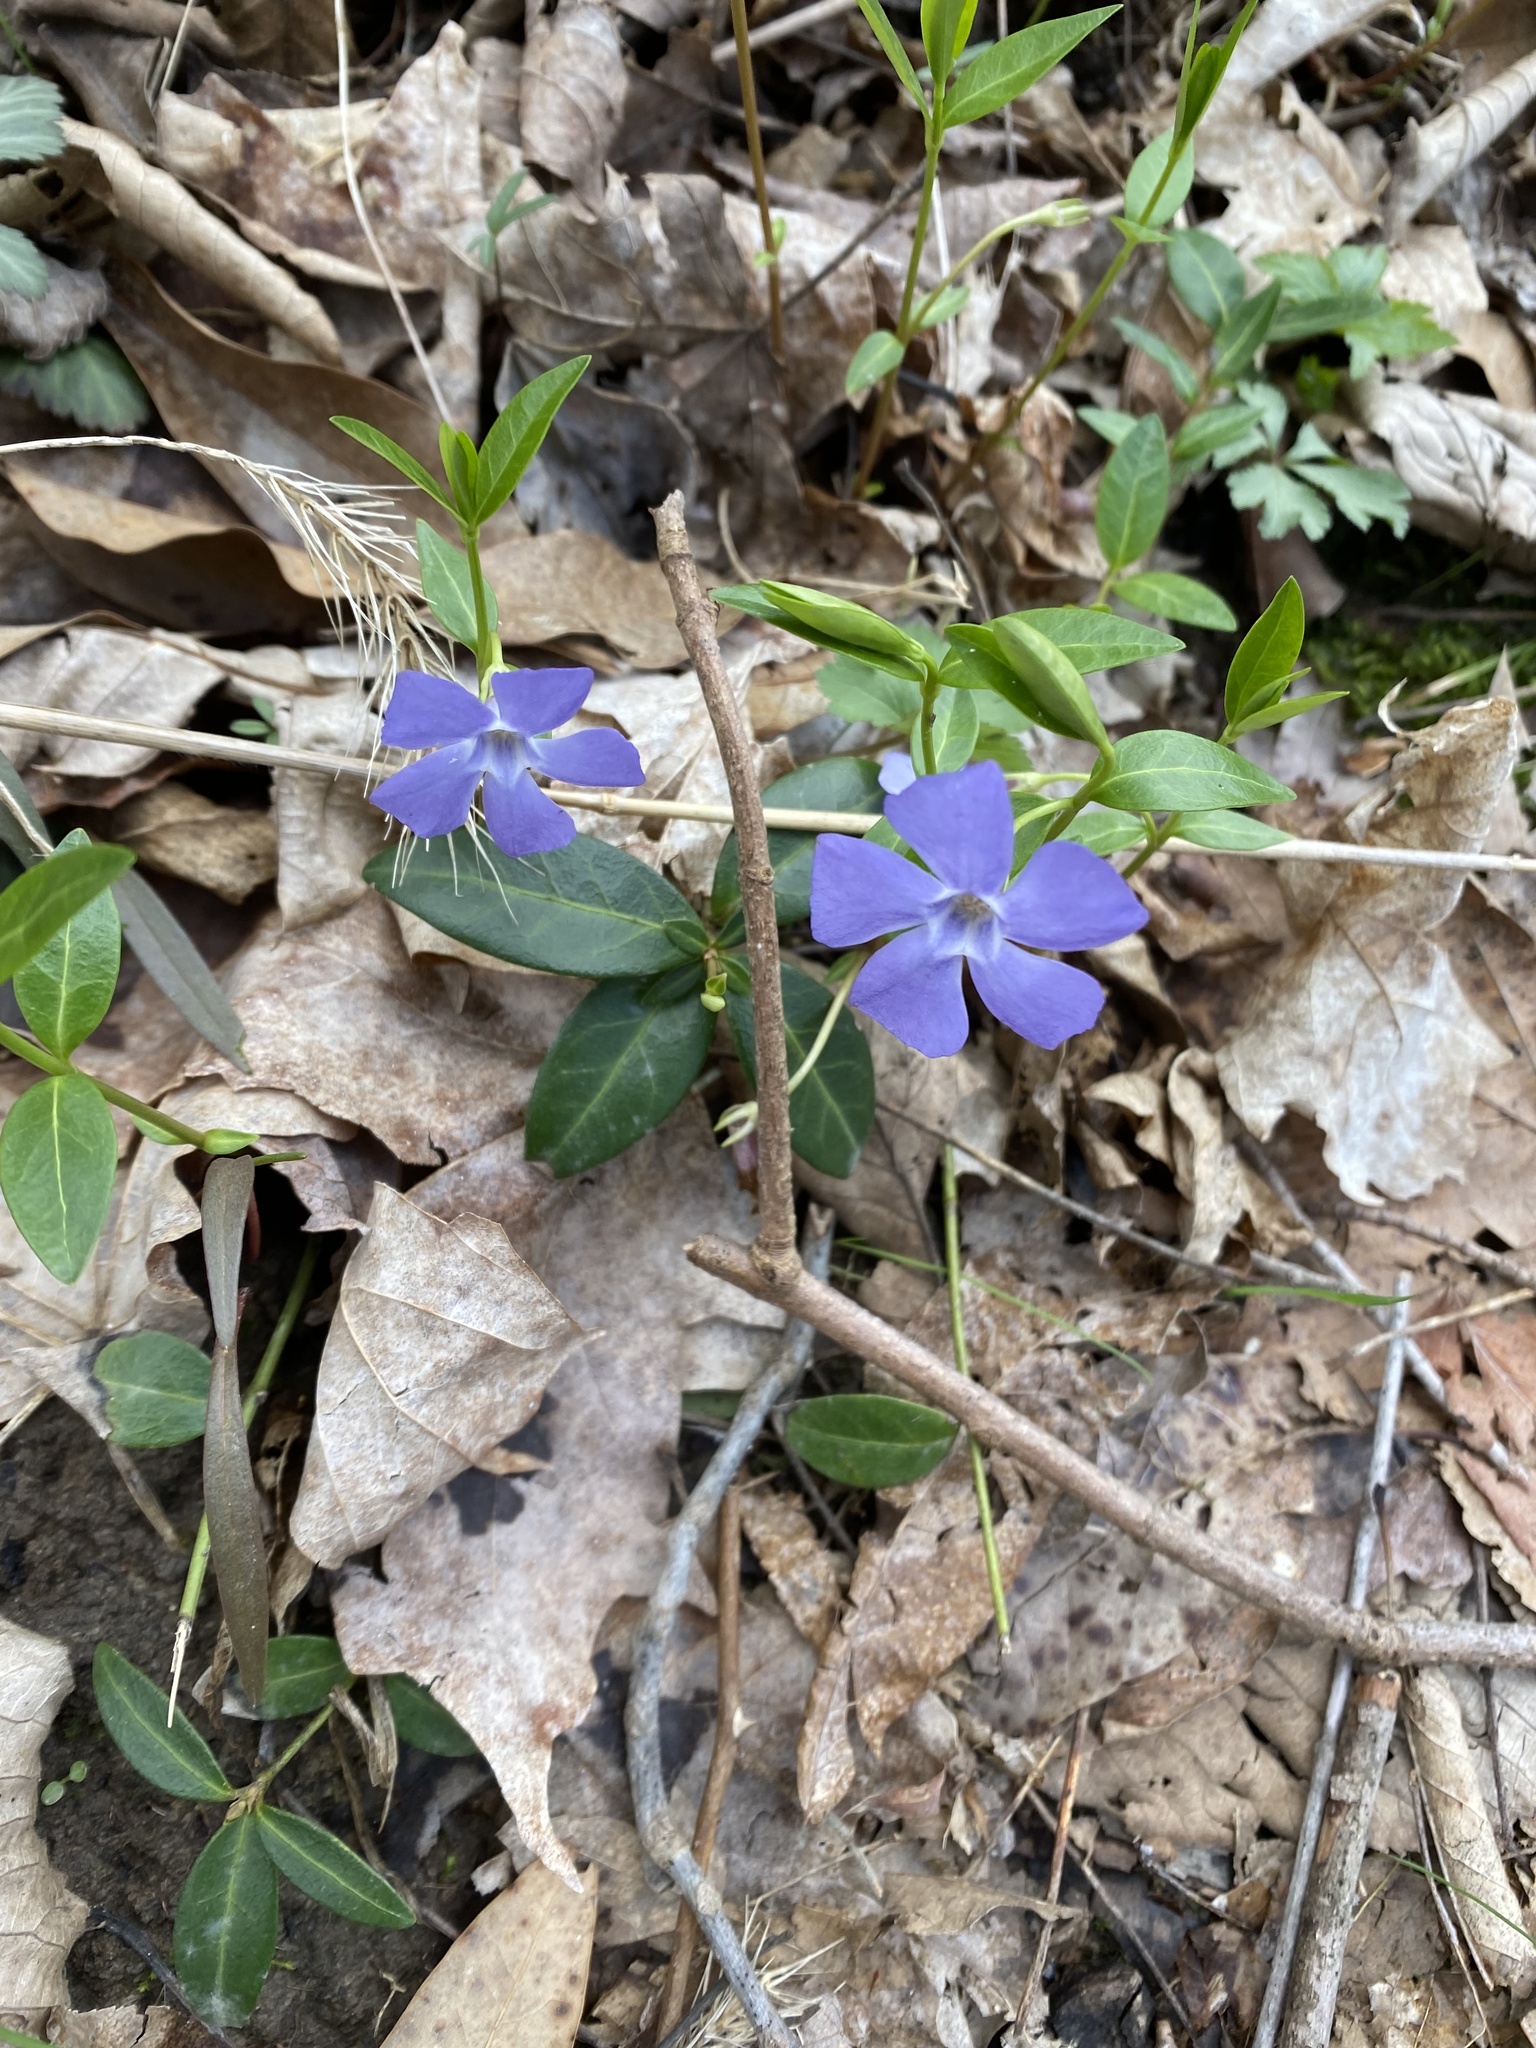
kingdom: Plantae
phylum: Tracheophyta
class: Magnoliopsida
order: Gentianales
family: Apocynaceae
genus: Vinca
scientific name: Vinca minor
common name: Lesser periwinkle
